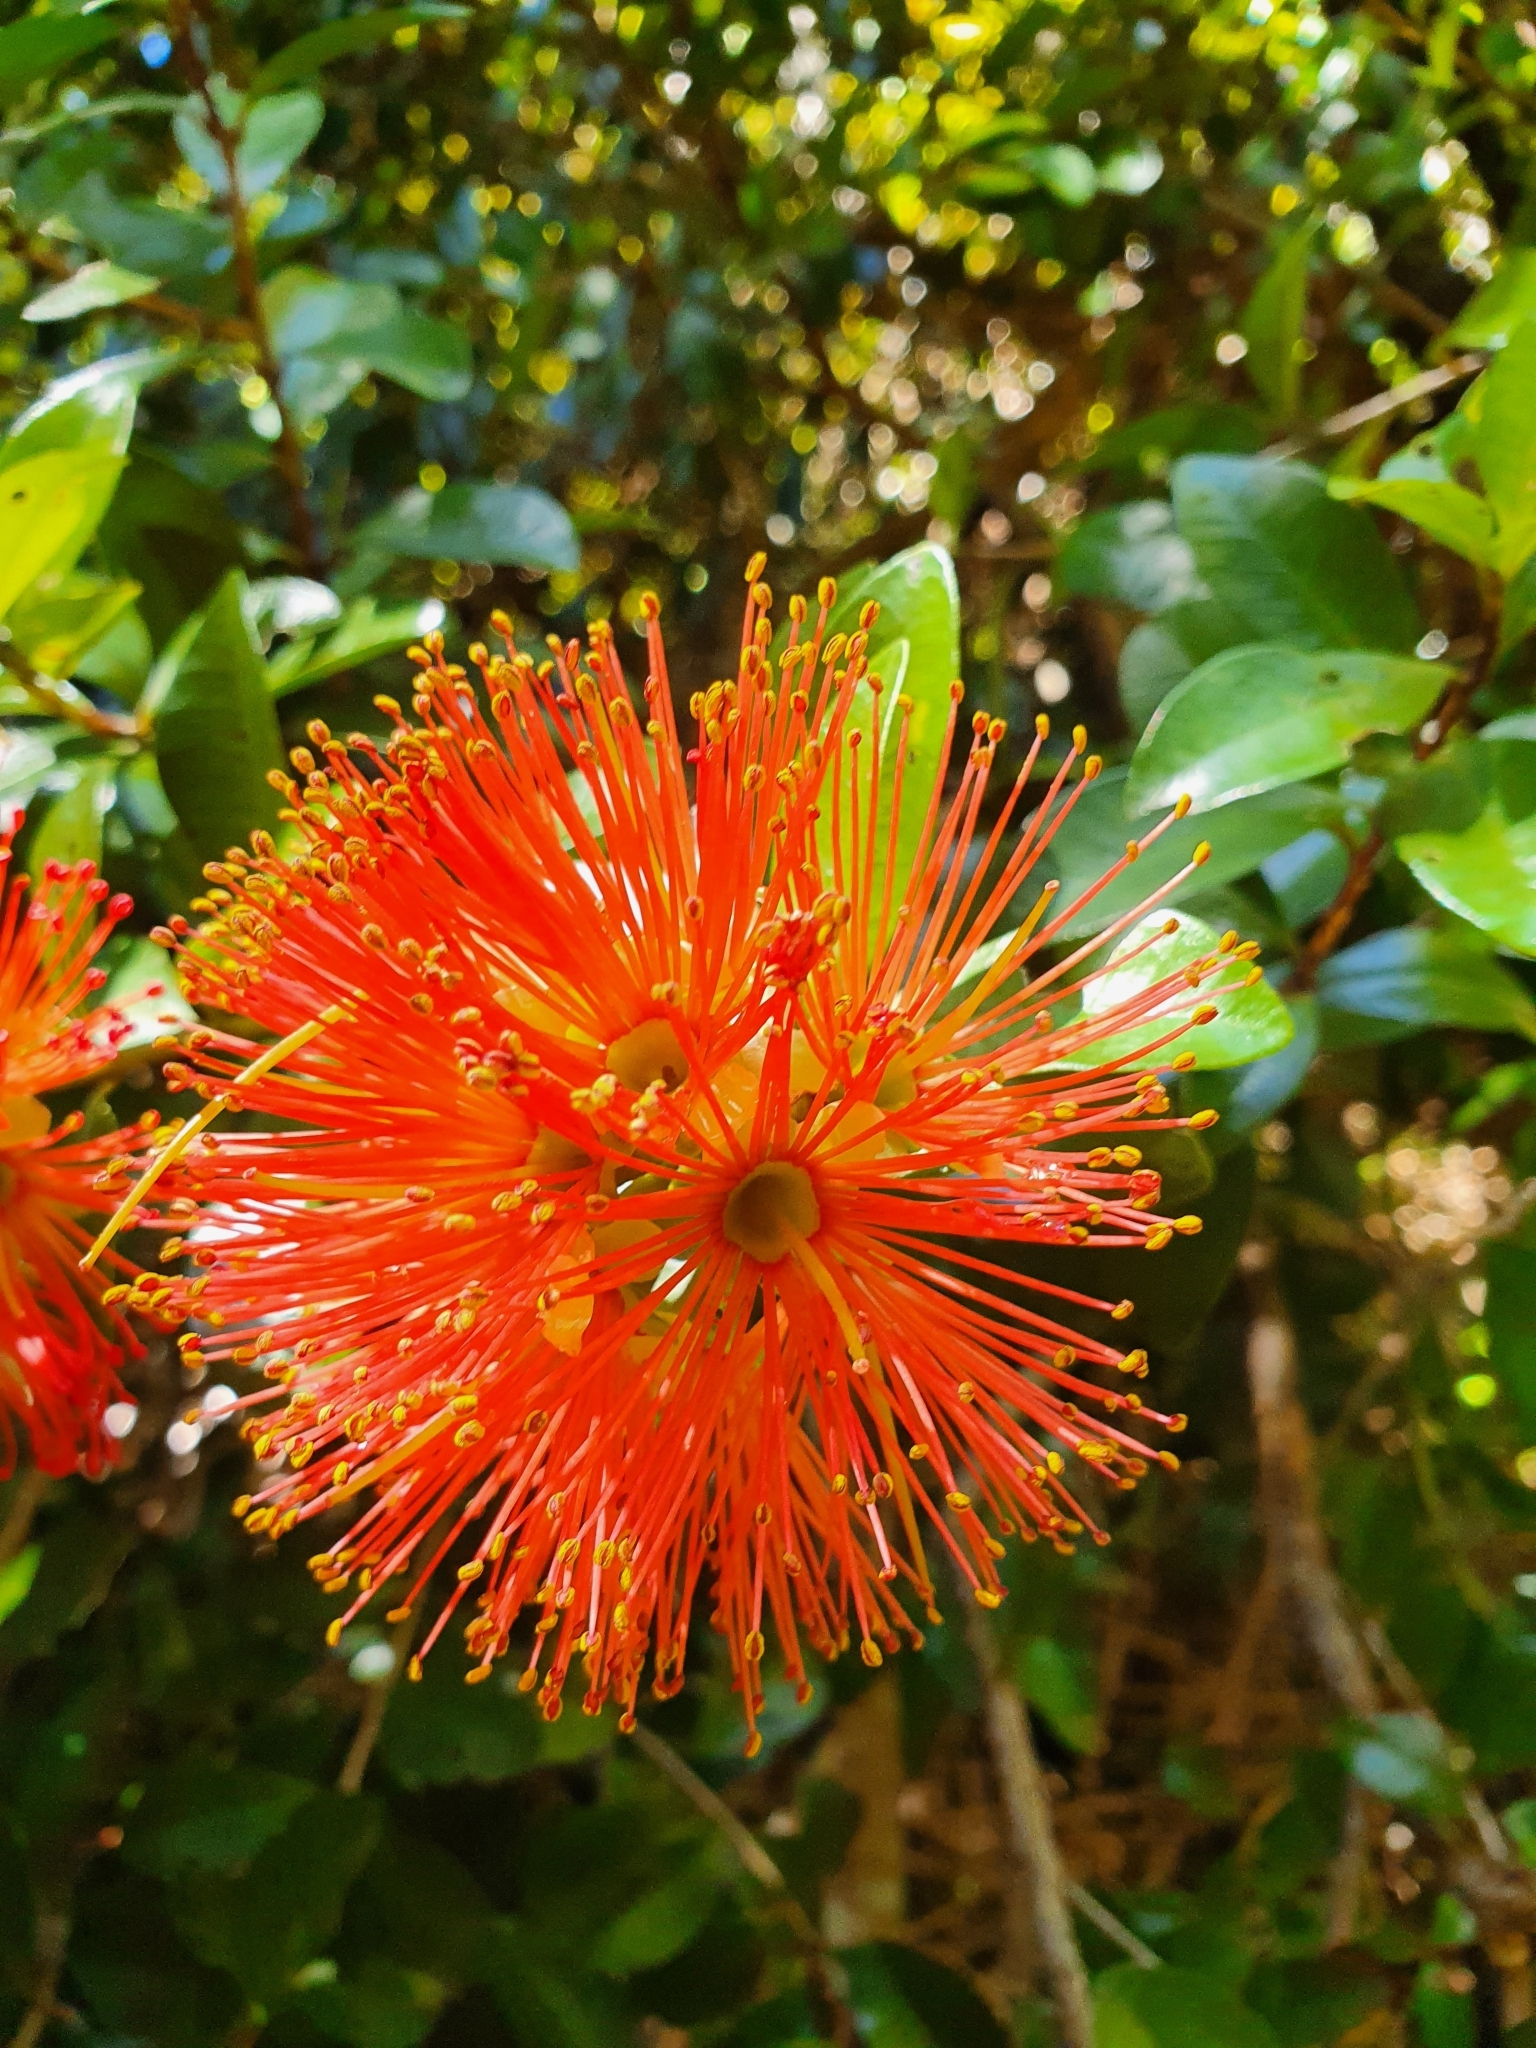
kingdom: Plantae
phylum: Tracheophyta
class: Magnoliopsida
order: Myrtales
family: Myrtaceae
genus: Metrosideros
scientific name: Metrosideros fulgens
